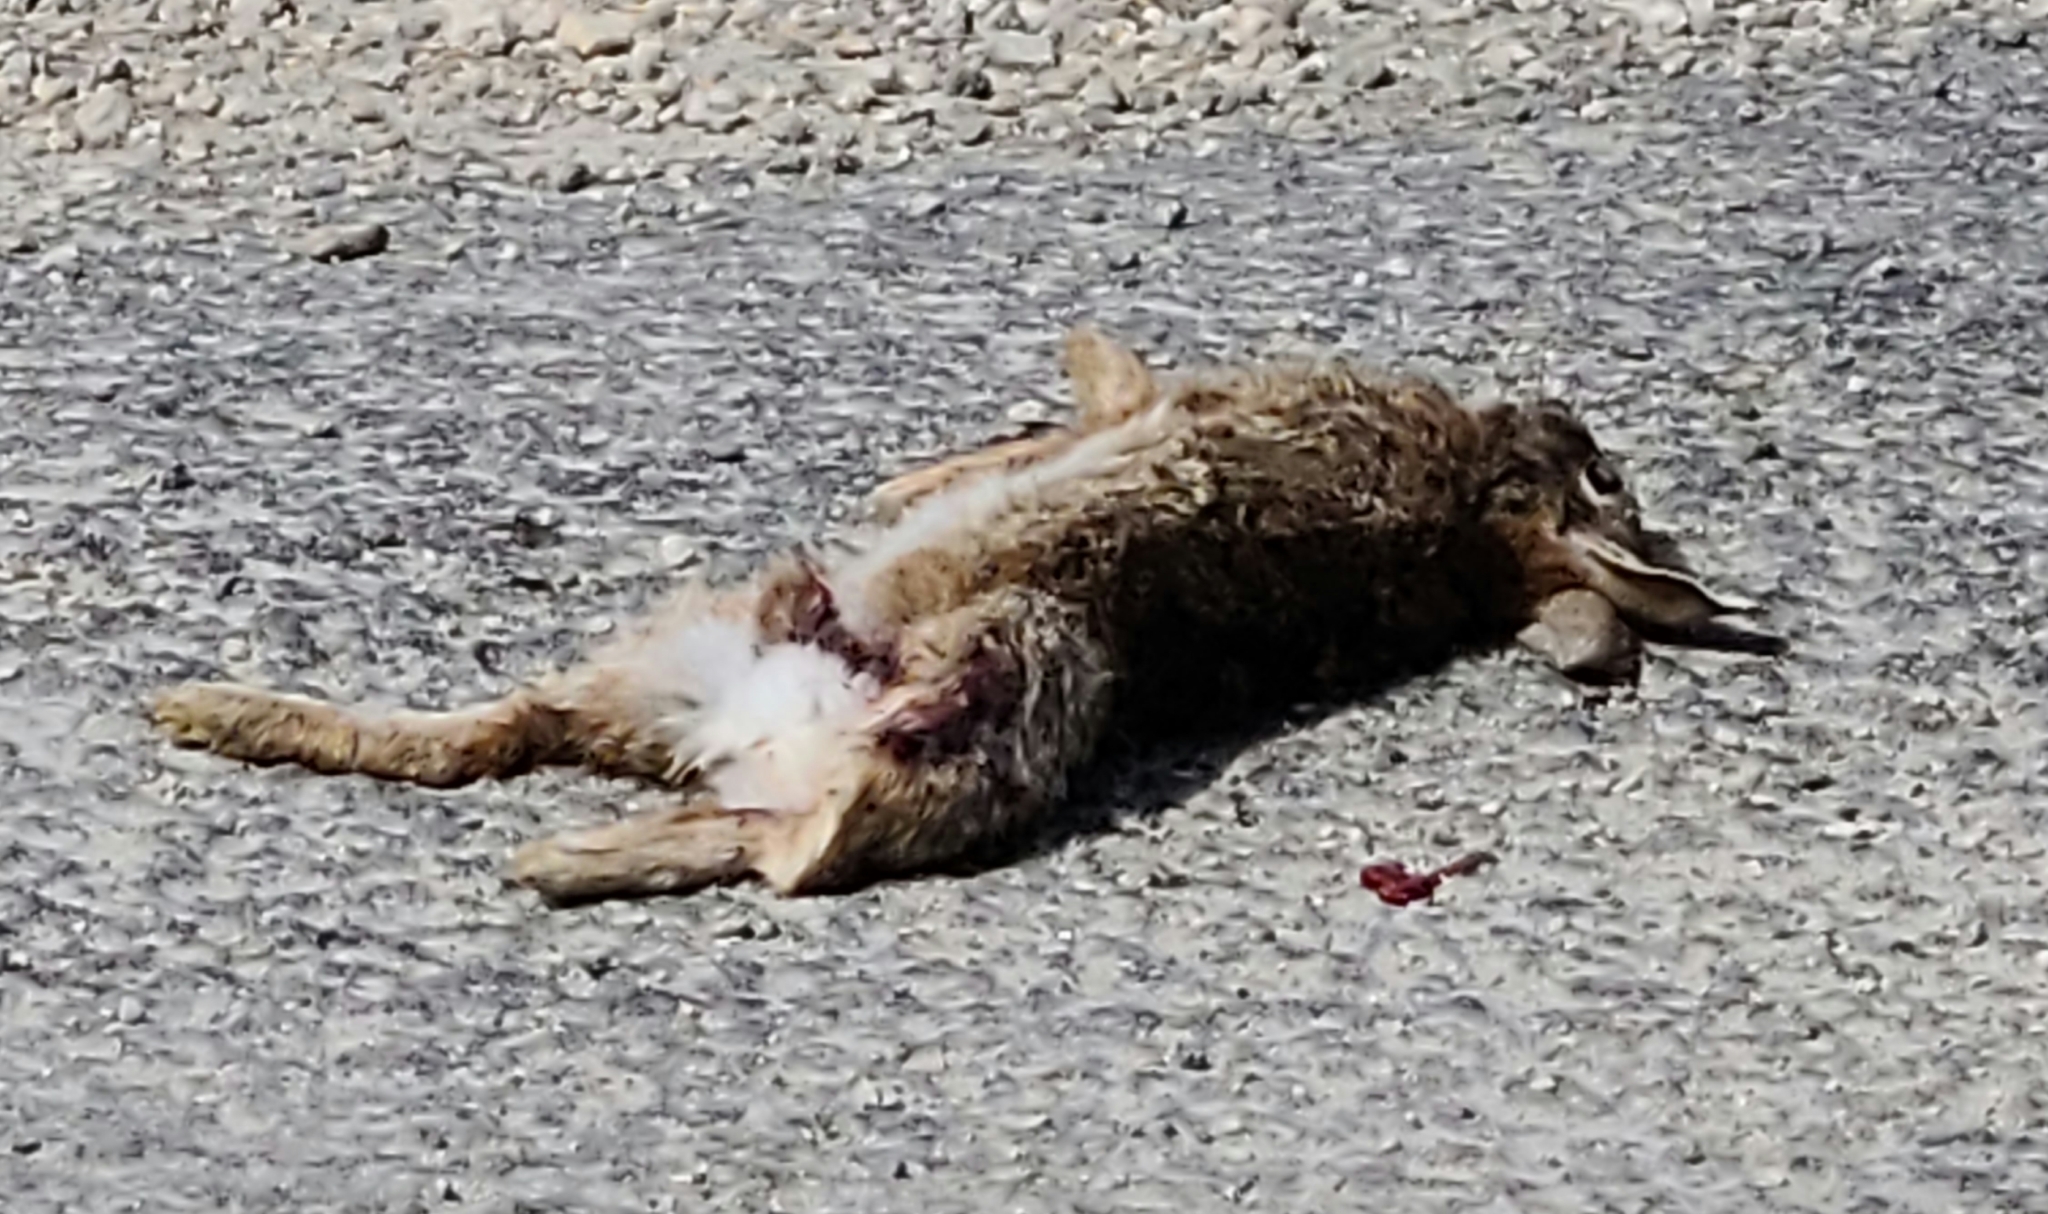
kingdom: Animalia
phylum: Chordata
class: Mammalia
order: Lagomorpha
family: Leporidae
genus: Sylvilagus
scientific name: Sylvilagus floridanus
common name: Eastern cottontail
